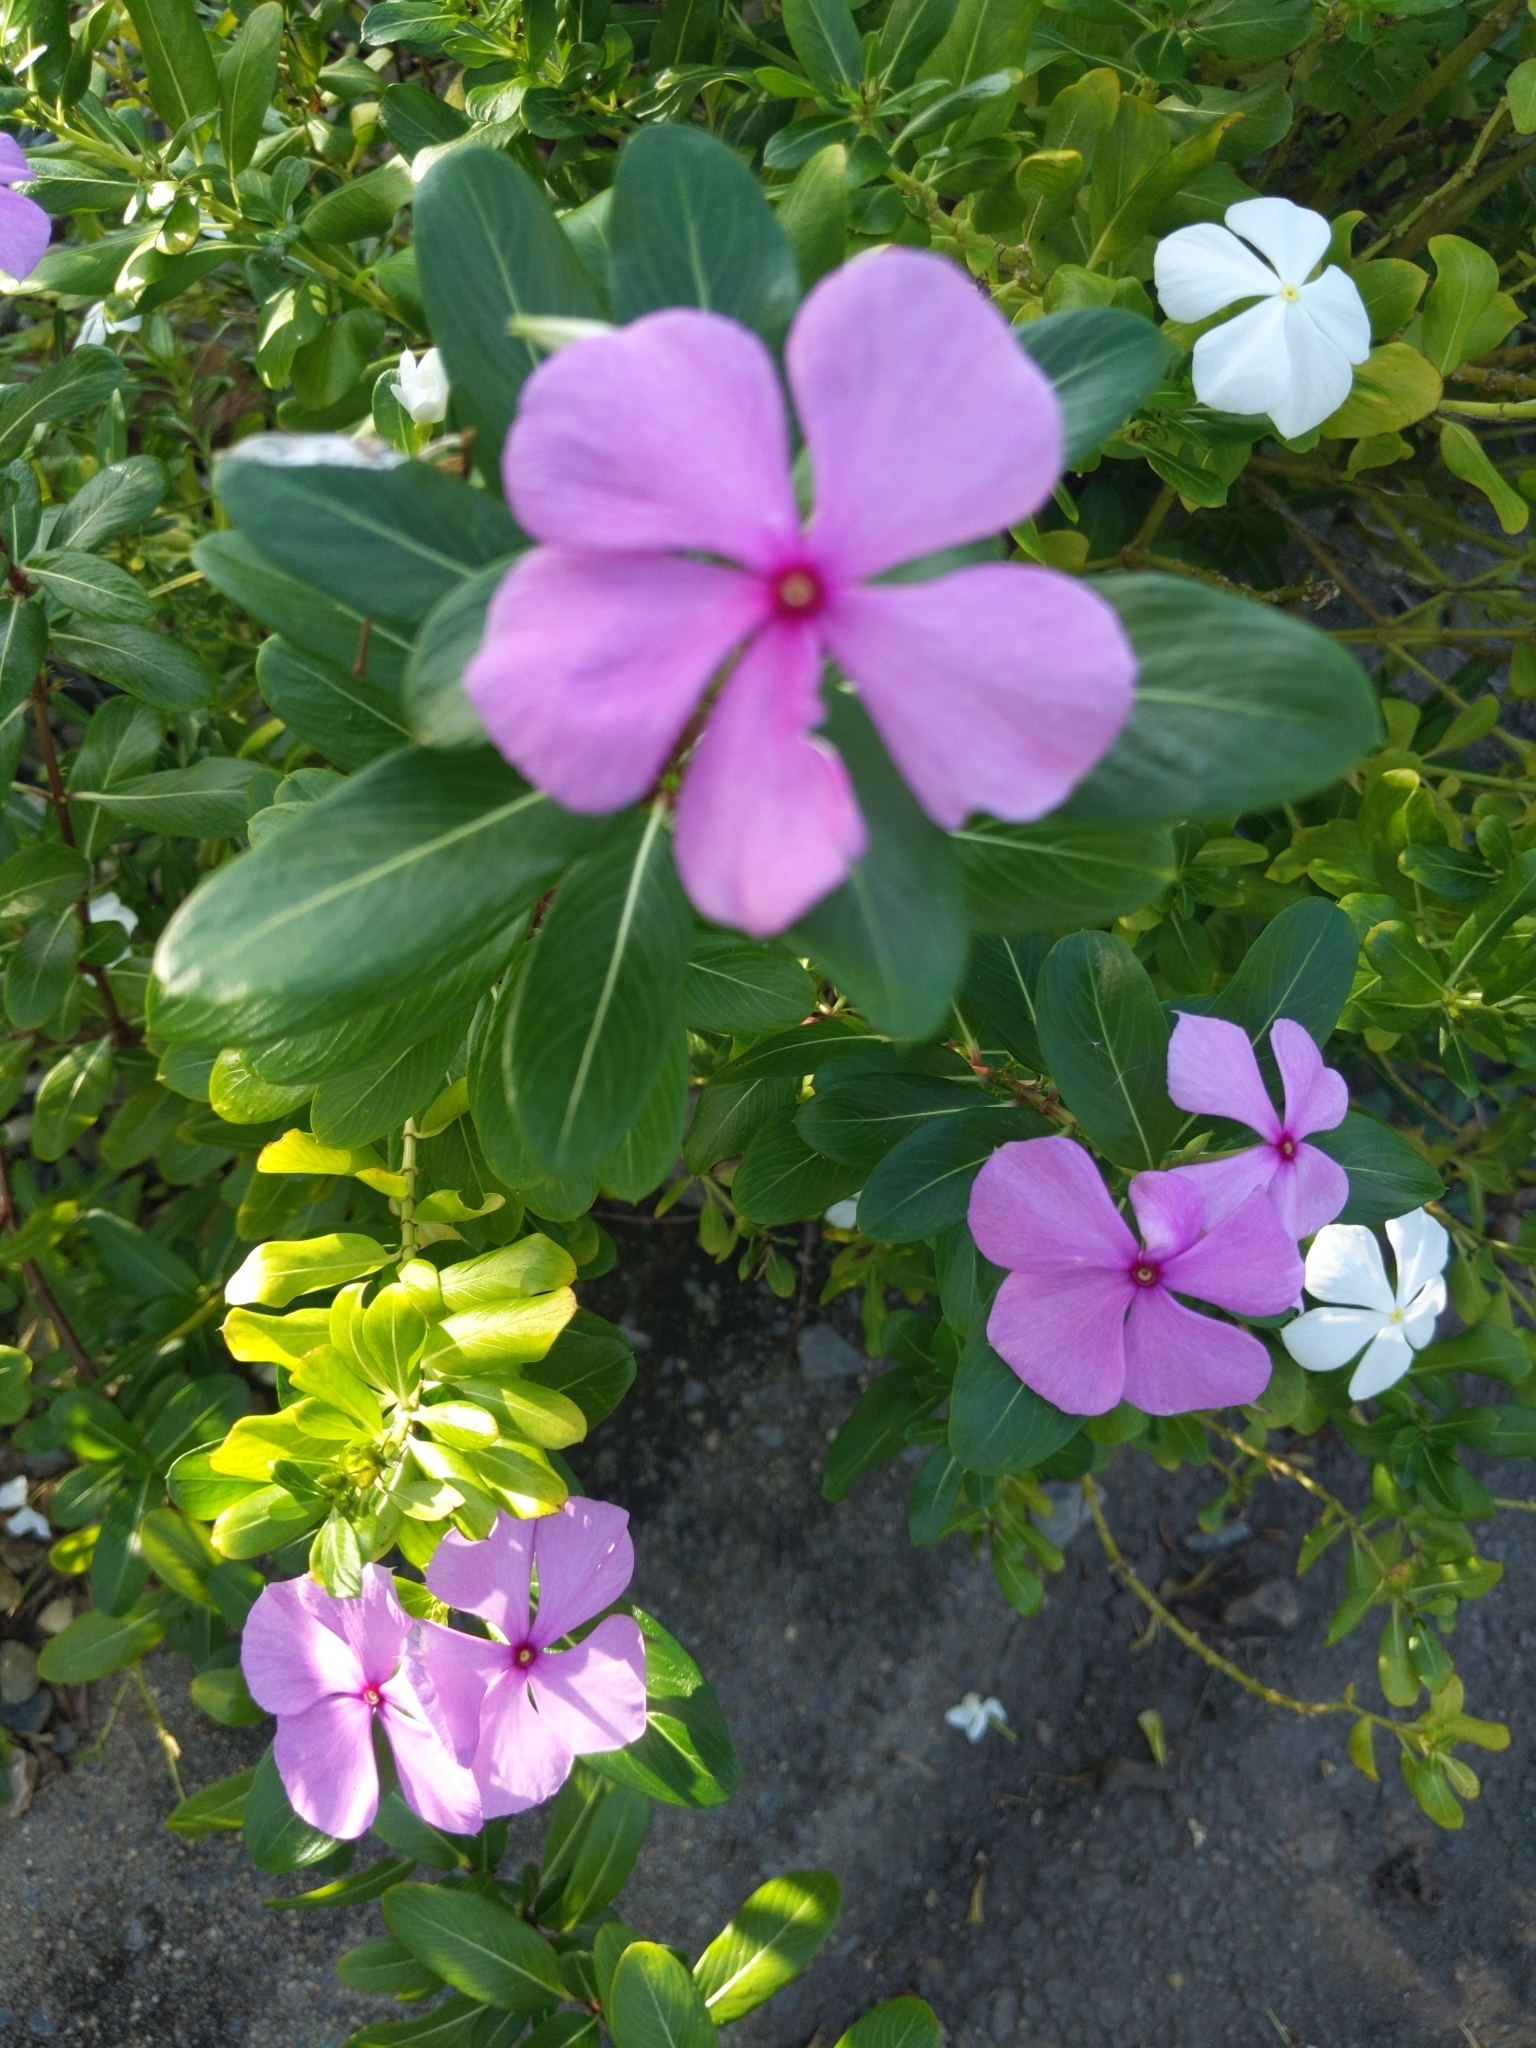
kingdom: Plantae
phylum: Tracheophyta
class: Magnoliopsida
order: Gentianales
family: Apocynaceae
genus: Catharanthus
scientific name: Catharanthus roseus
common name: Madagascar periwinkle
